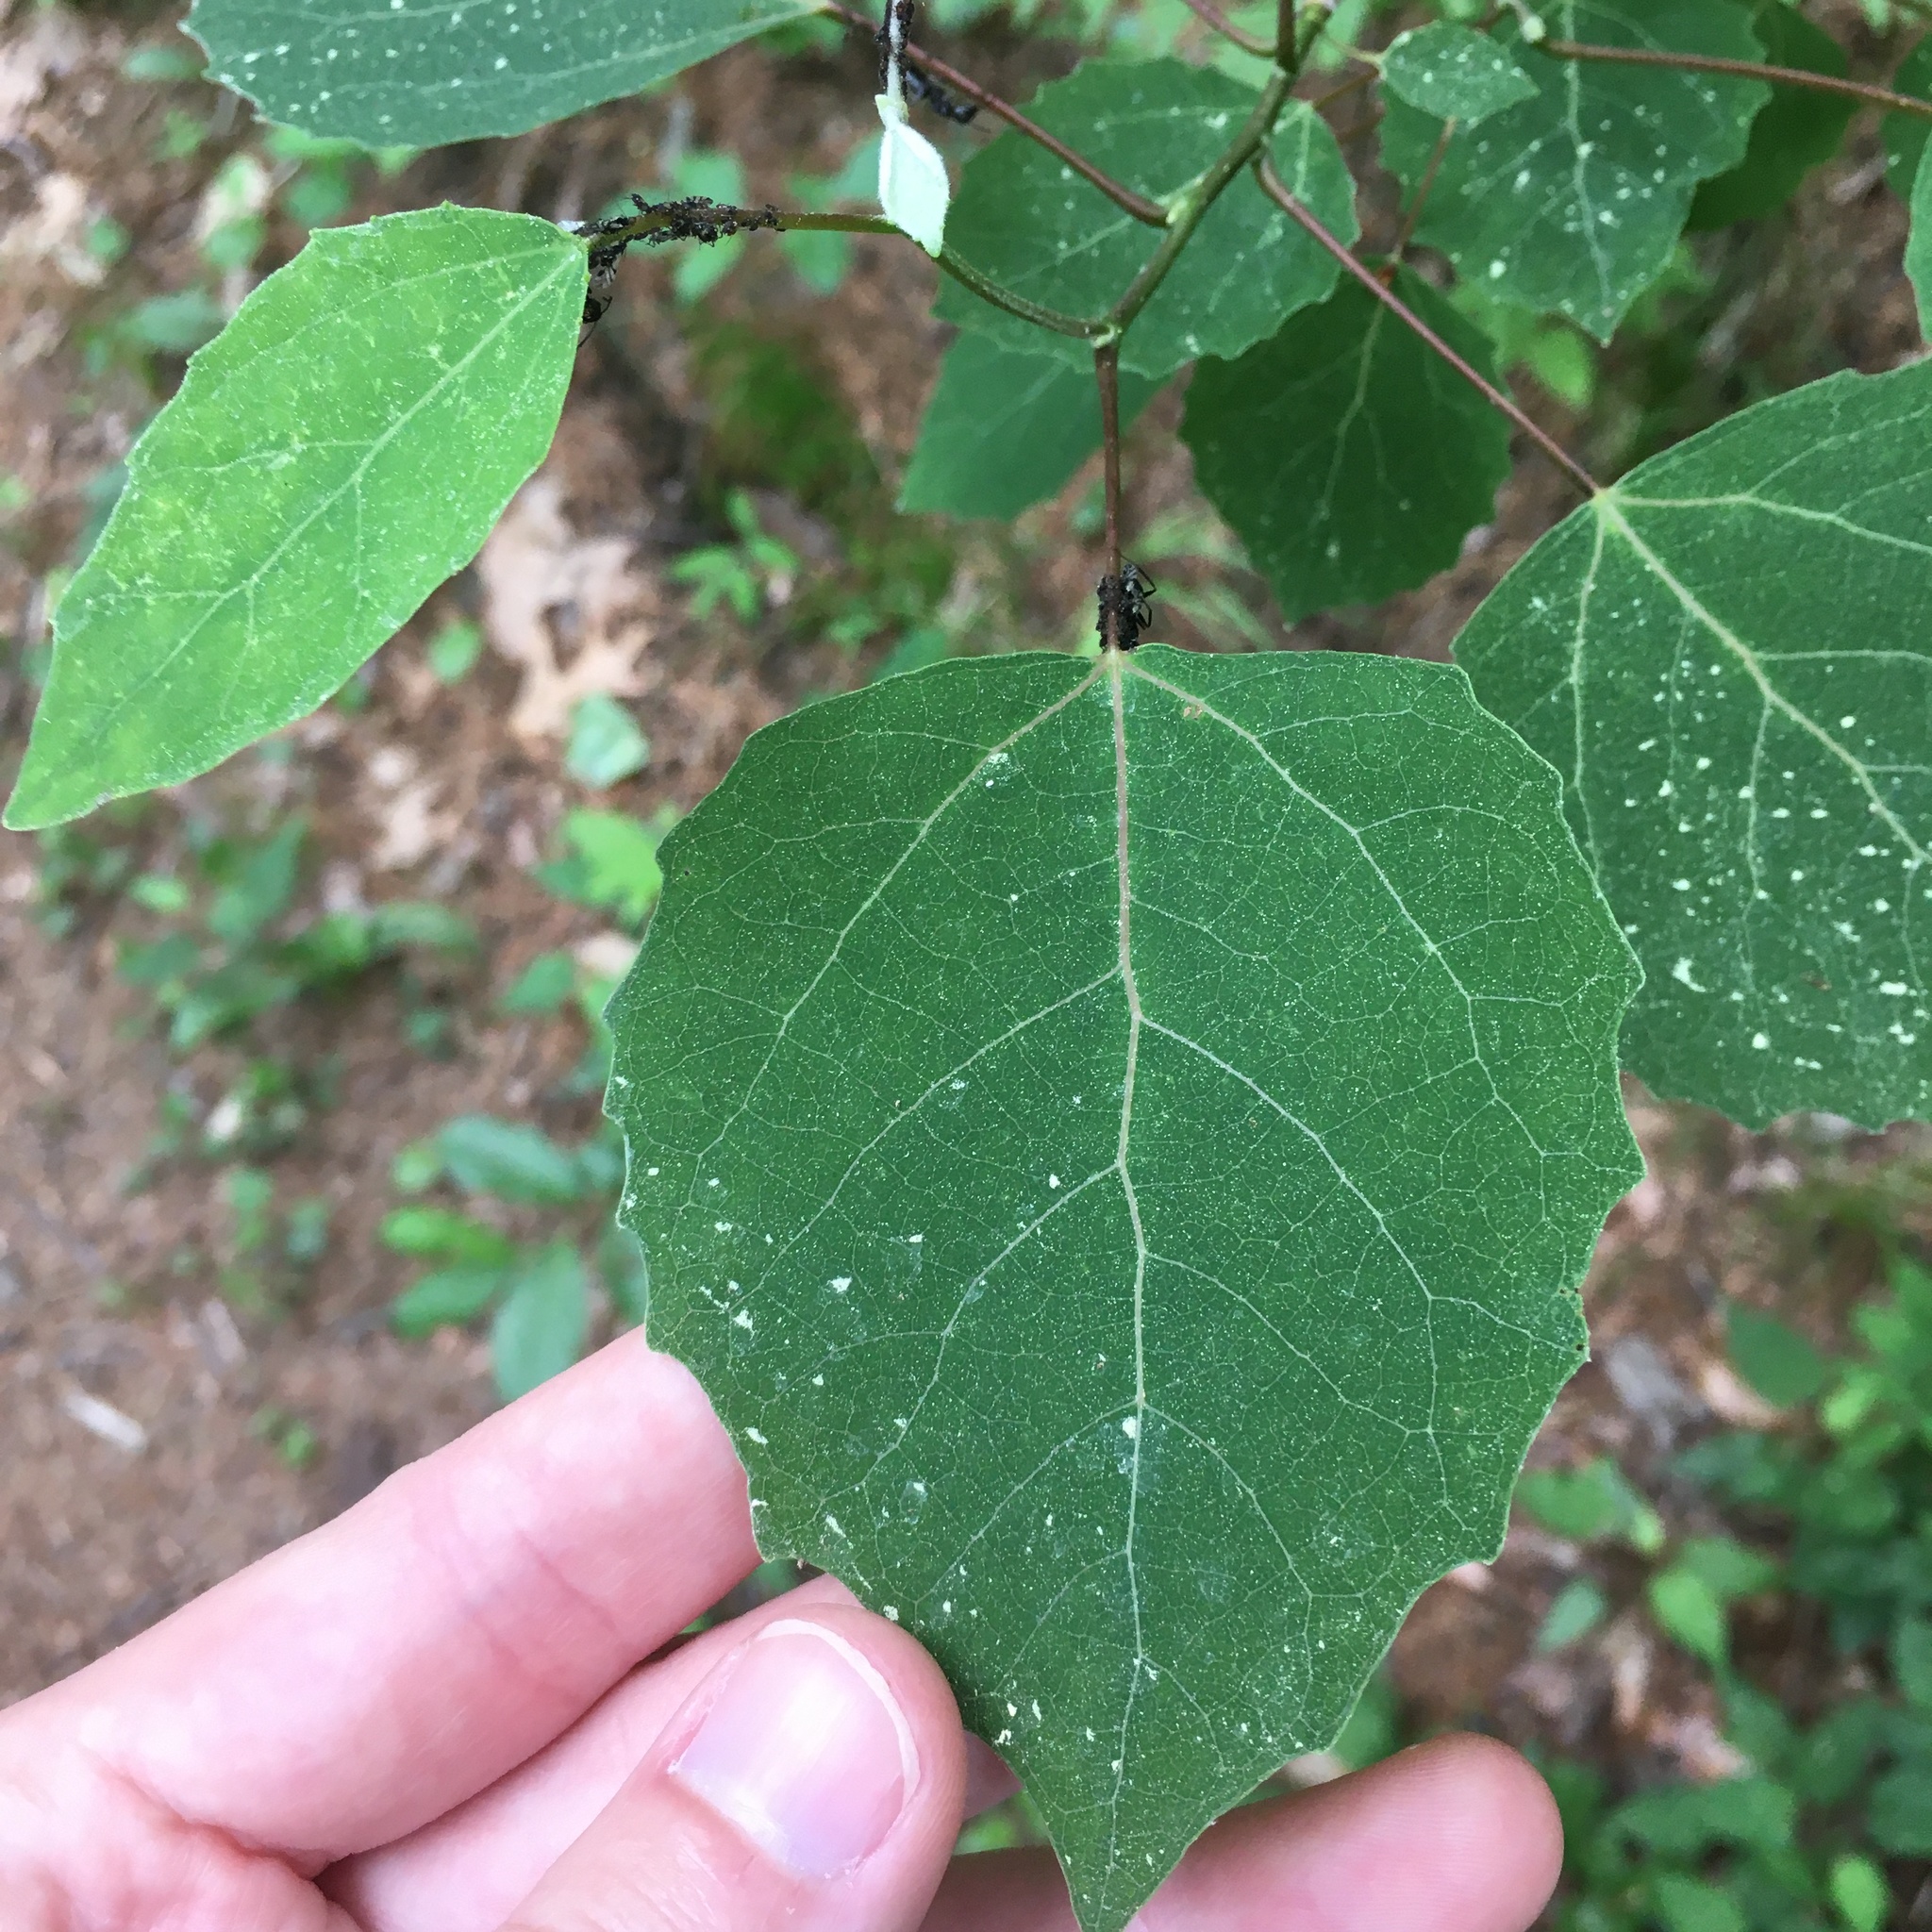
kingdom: Plantae
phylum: Tracheophyta
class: Magnoliopsida
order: Malpighiales
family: Salicaceae
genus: Populus
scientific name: Populus grandidentata
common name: Bigtooth aspen
